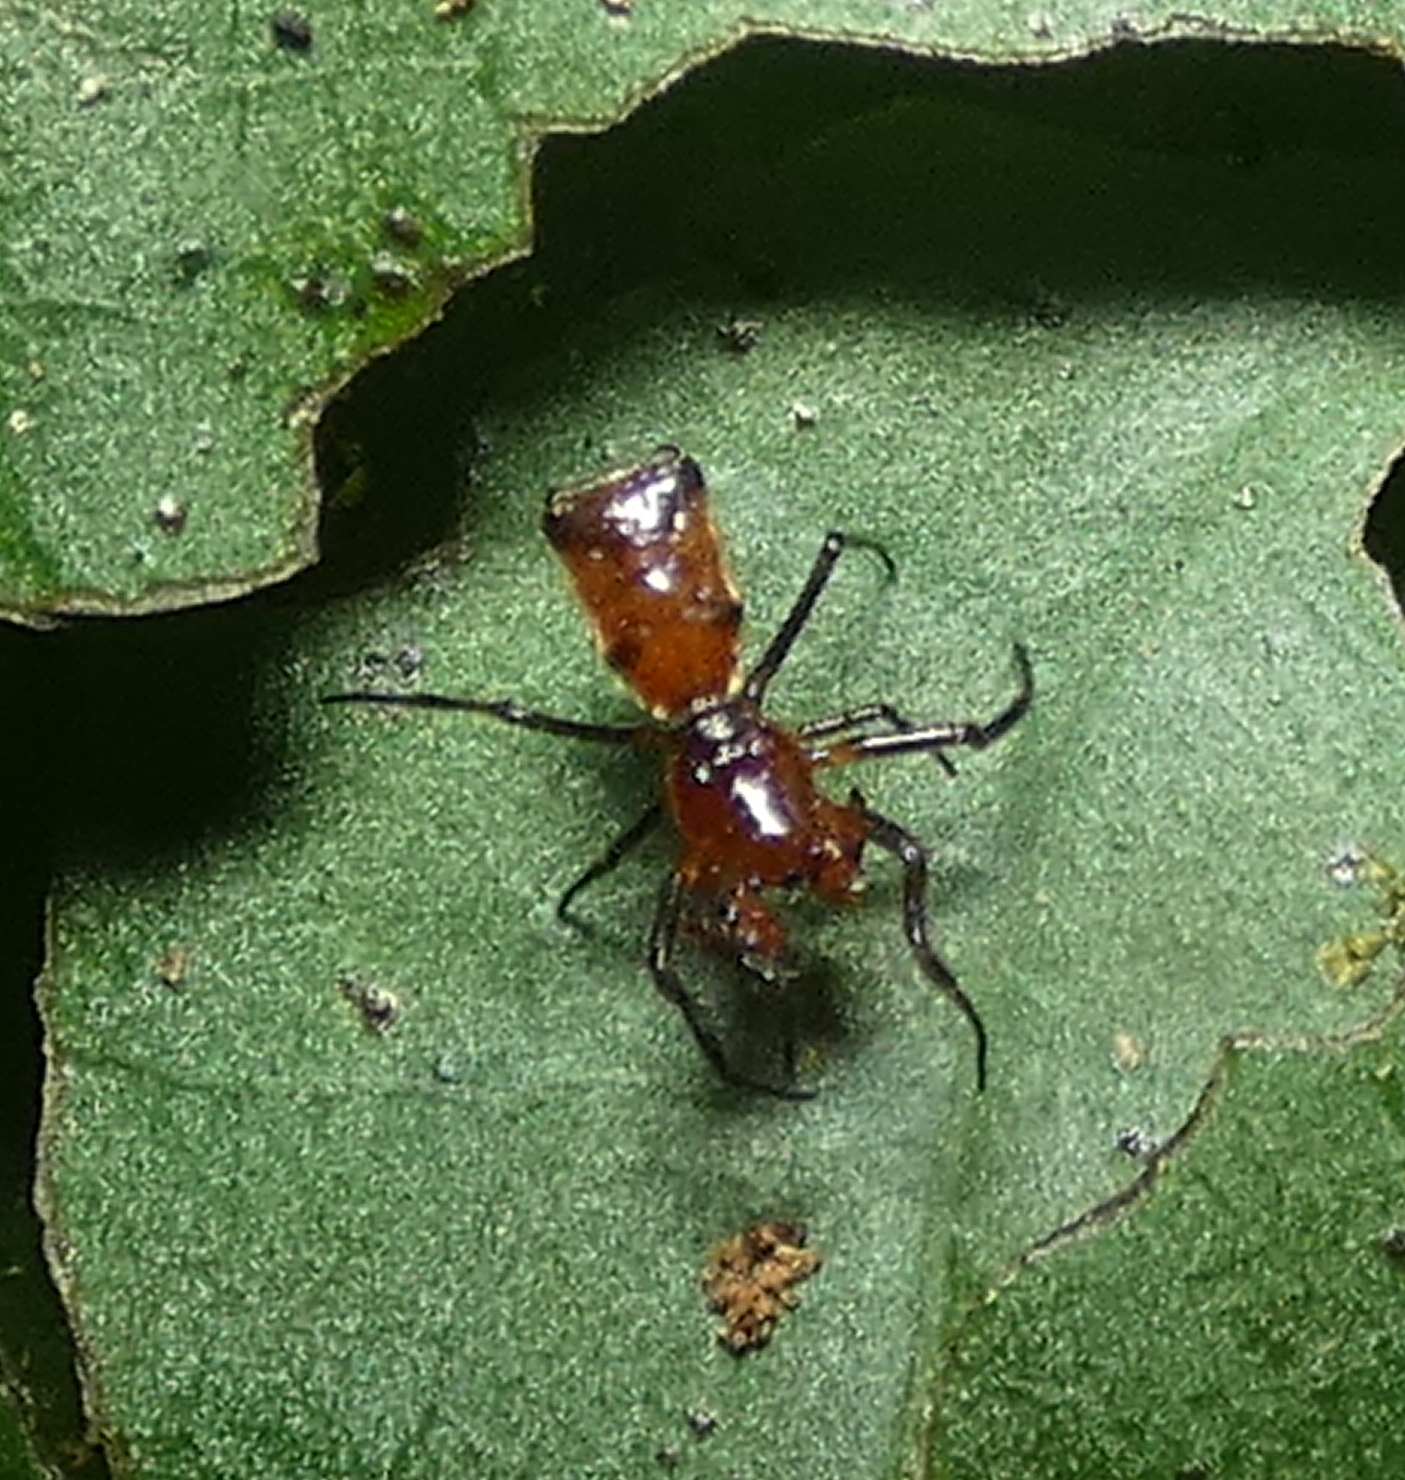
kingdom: Animalia
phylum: Arthropoda
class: Arachnida
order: Araneae
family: Araneidae
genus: Micrathena
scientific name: Micrathena picta
